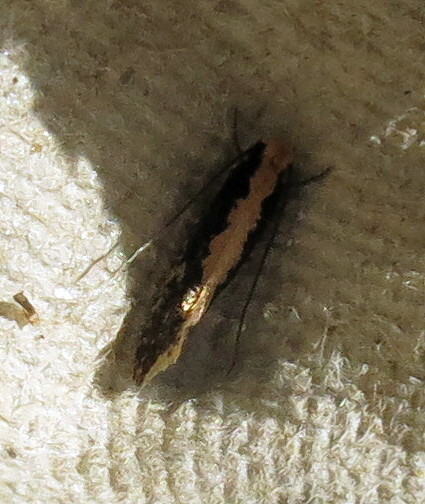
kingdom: Animalia
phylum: Arthropoda
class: Insecta
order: Lepidoptera
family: Tineidae
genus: Monopis
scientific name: Monopis crocicapitella
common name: Moth
